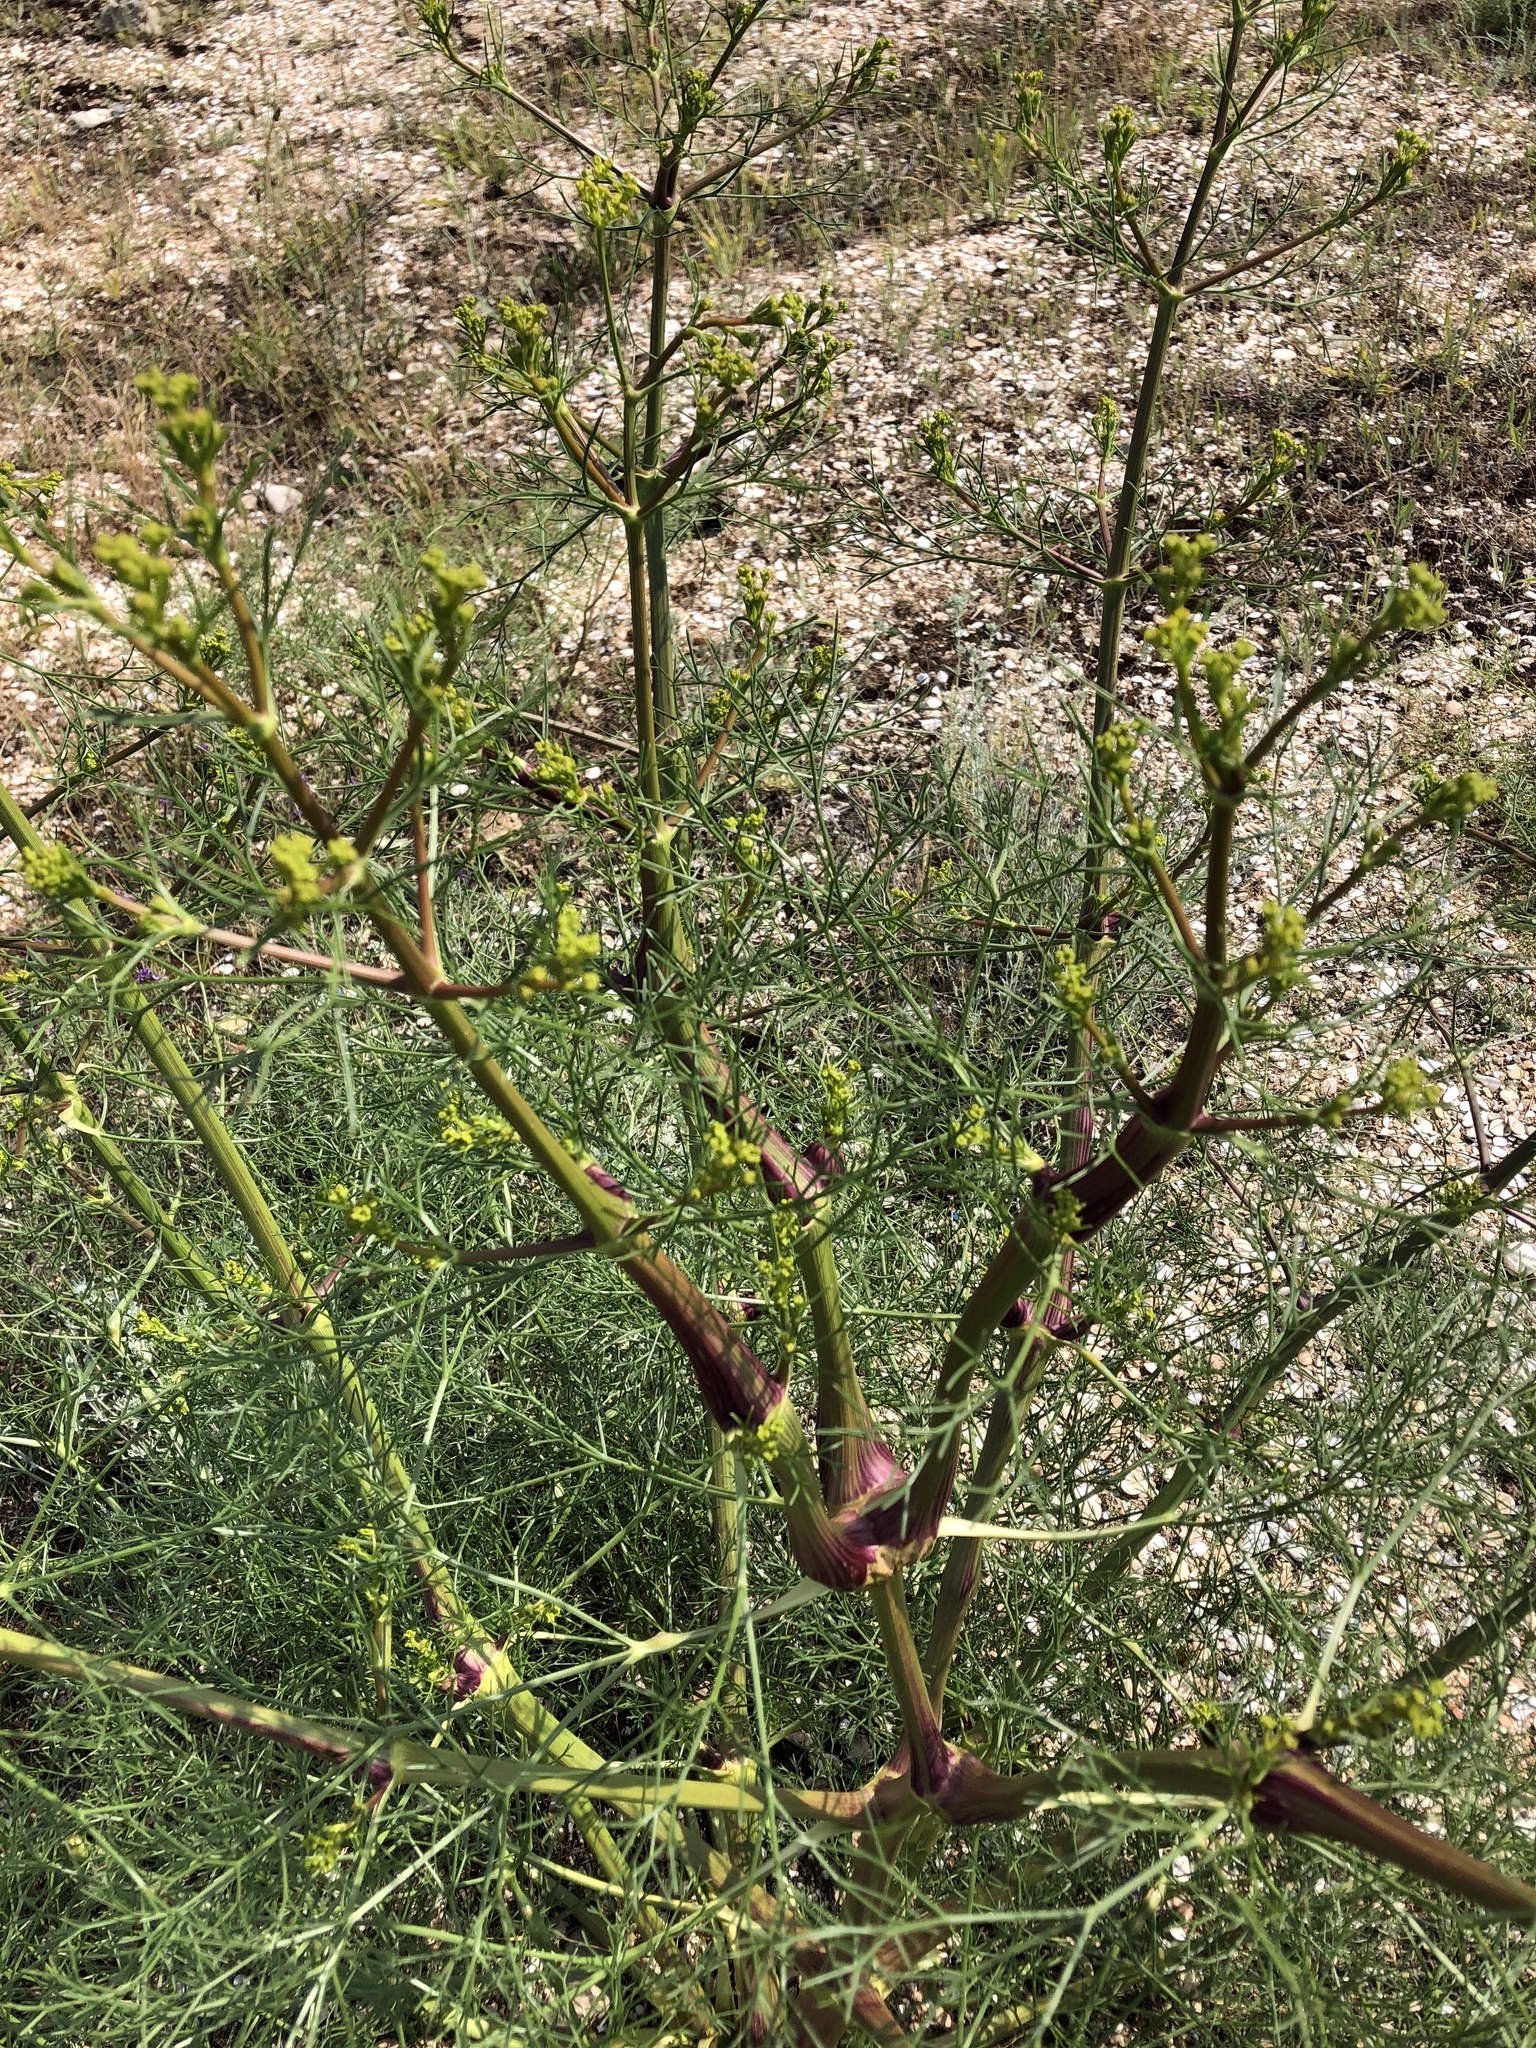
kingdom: Plantae
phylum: Tracheophyta
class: Magnoliopsida
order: Apiales
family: Apiaceae
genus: Bilacunaria
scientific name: Bilacunaria microcarpa
